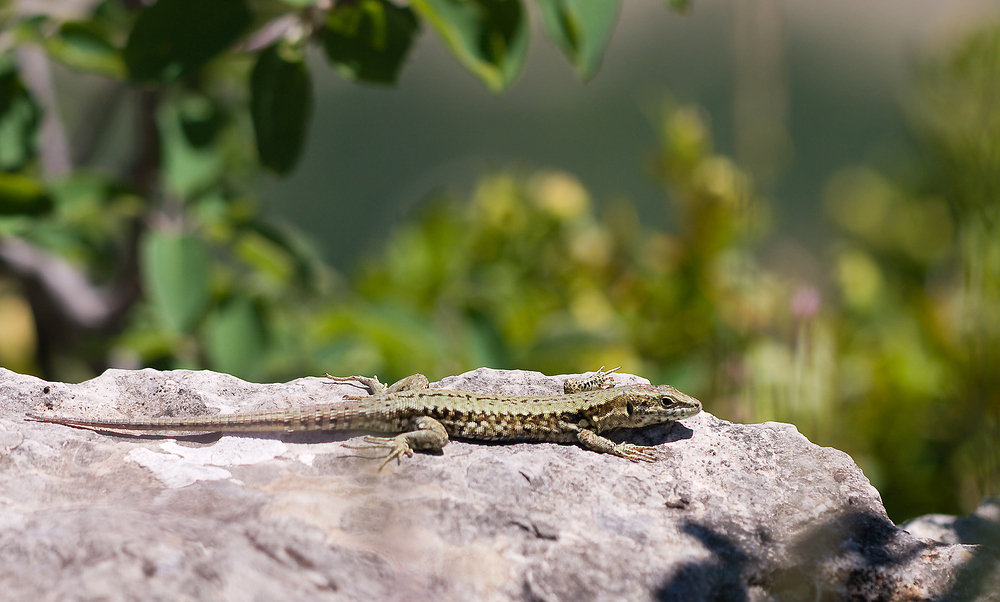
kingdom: Animalia
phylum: Chordata
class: Squamata
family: Lacertidae
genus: Podarcis
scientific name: Podarcis muralis
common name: Common wall lizard
